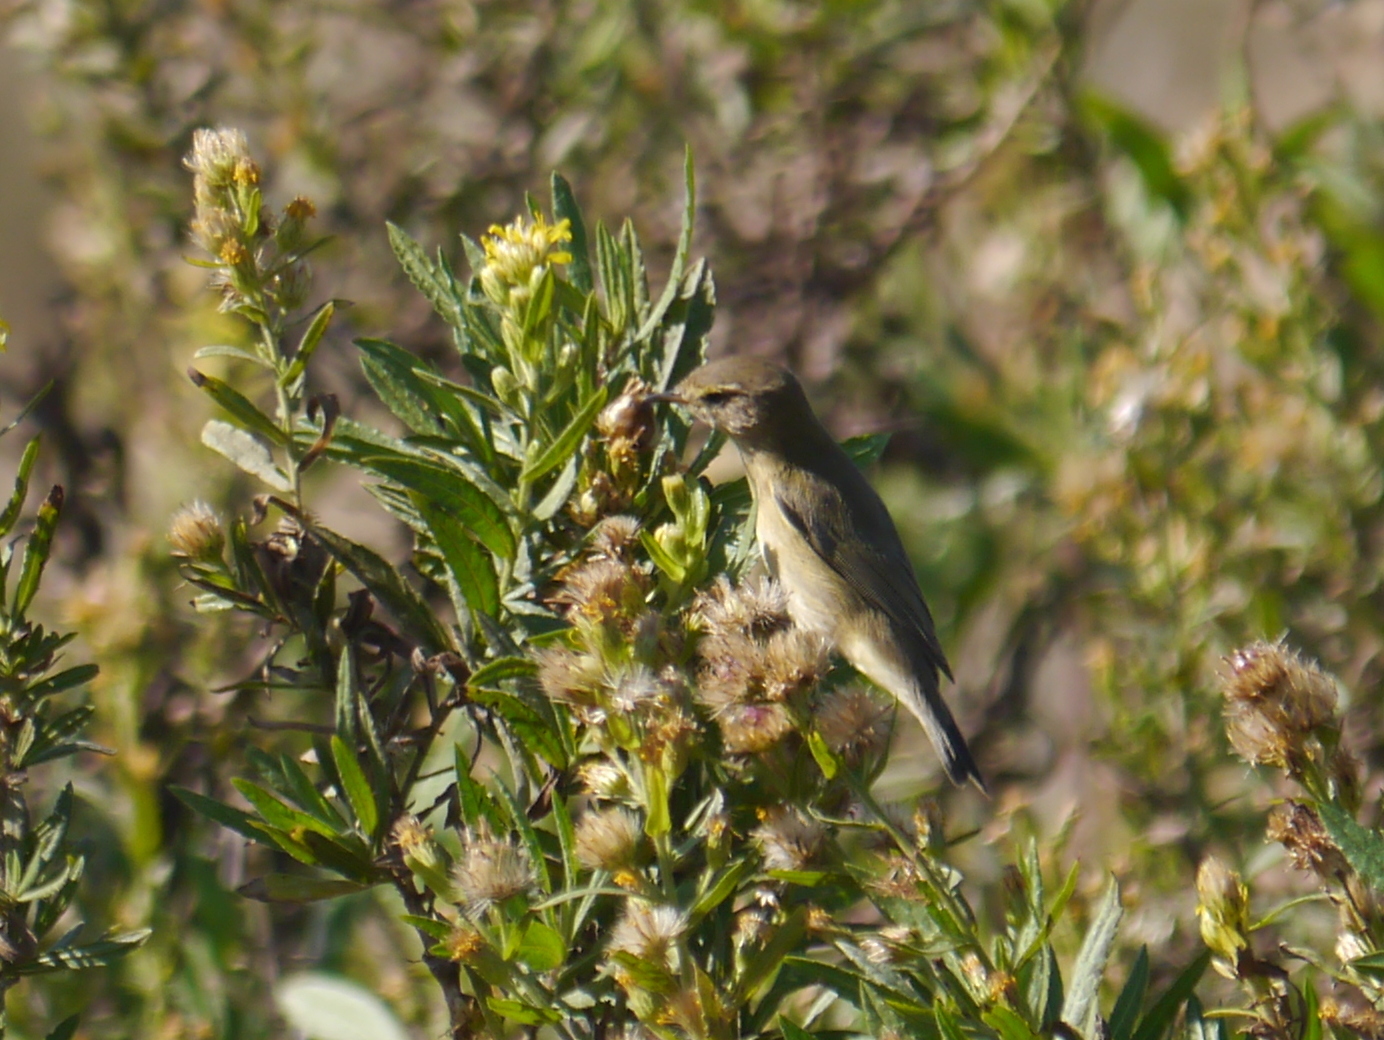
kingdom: Animalia
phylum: Chordata
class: Aves
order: Passeriformes
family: Phylloscopidae
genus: Phylloscopus
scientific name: Phylloscopus collybita
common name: Common chiffchaff
